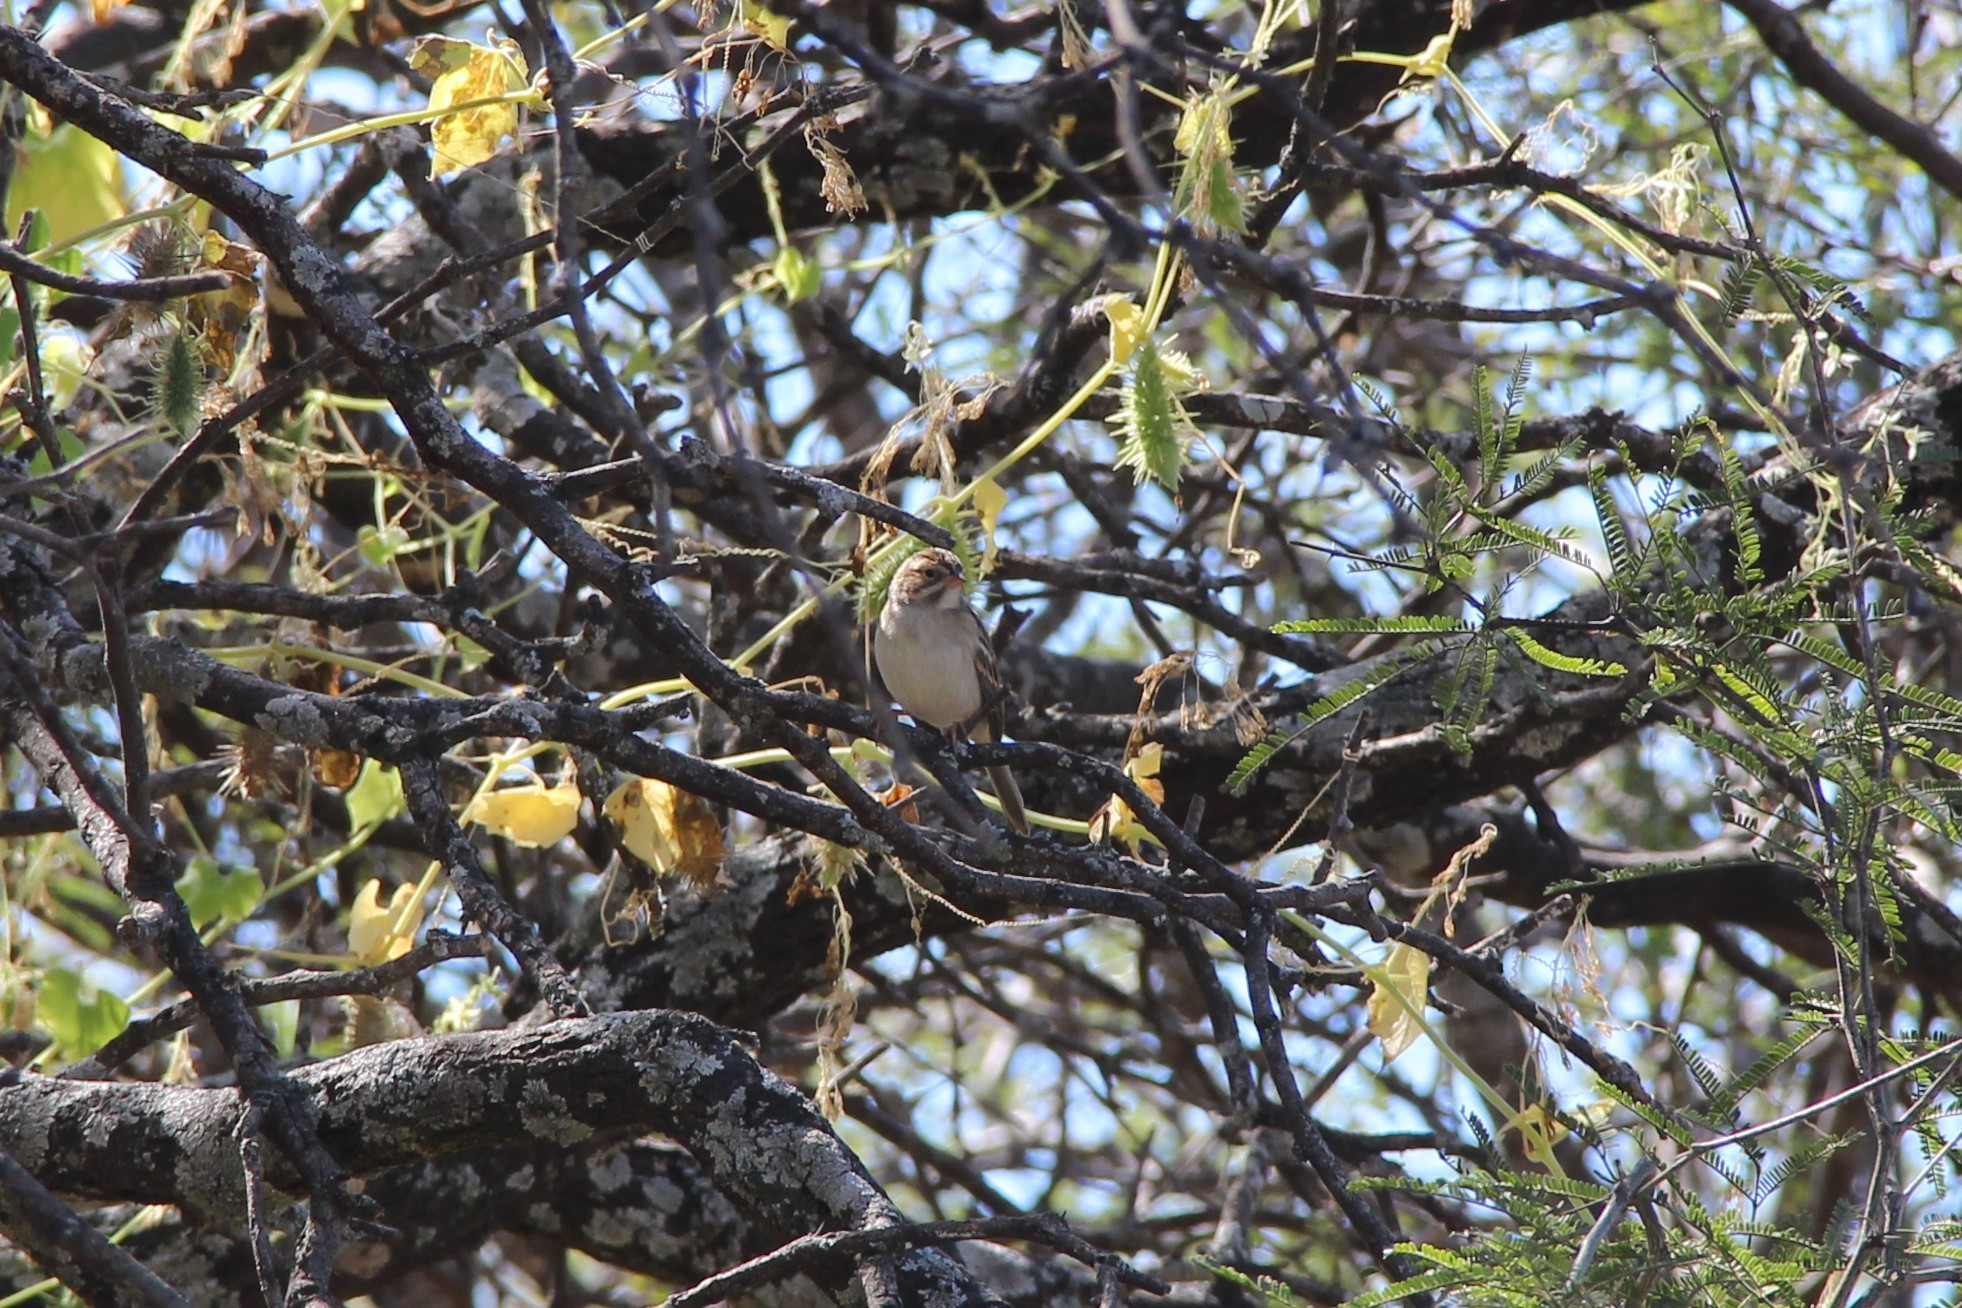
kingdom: Animalia
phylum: Chordata
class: Aves
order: Passeriformes
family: Passerellidae
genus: Spizella
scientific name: Spizella pallida
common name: Clay-colored sparrow
